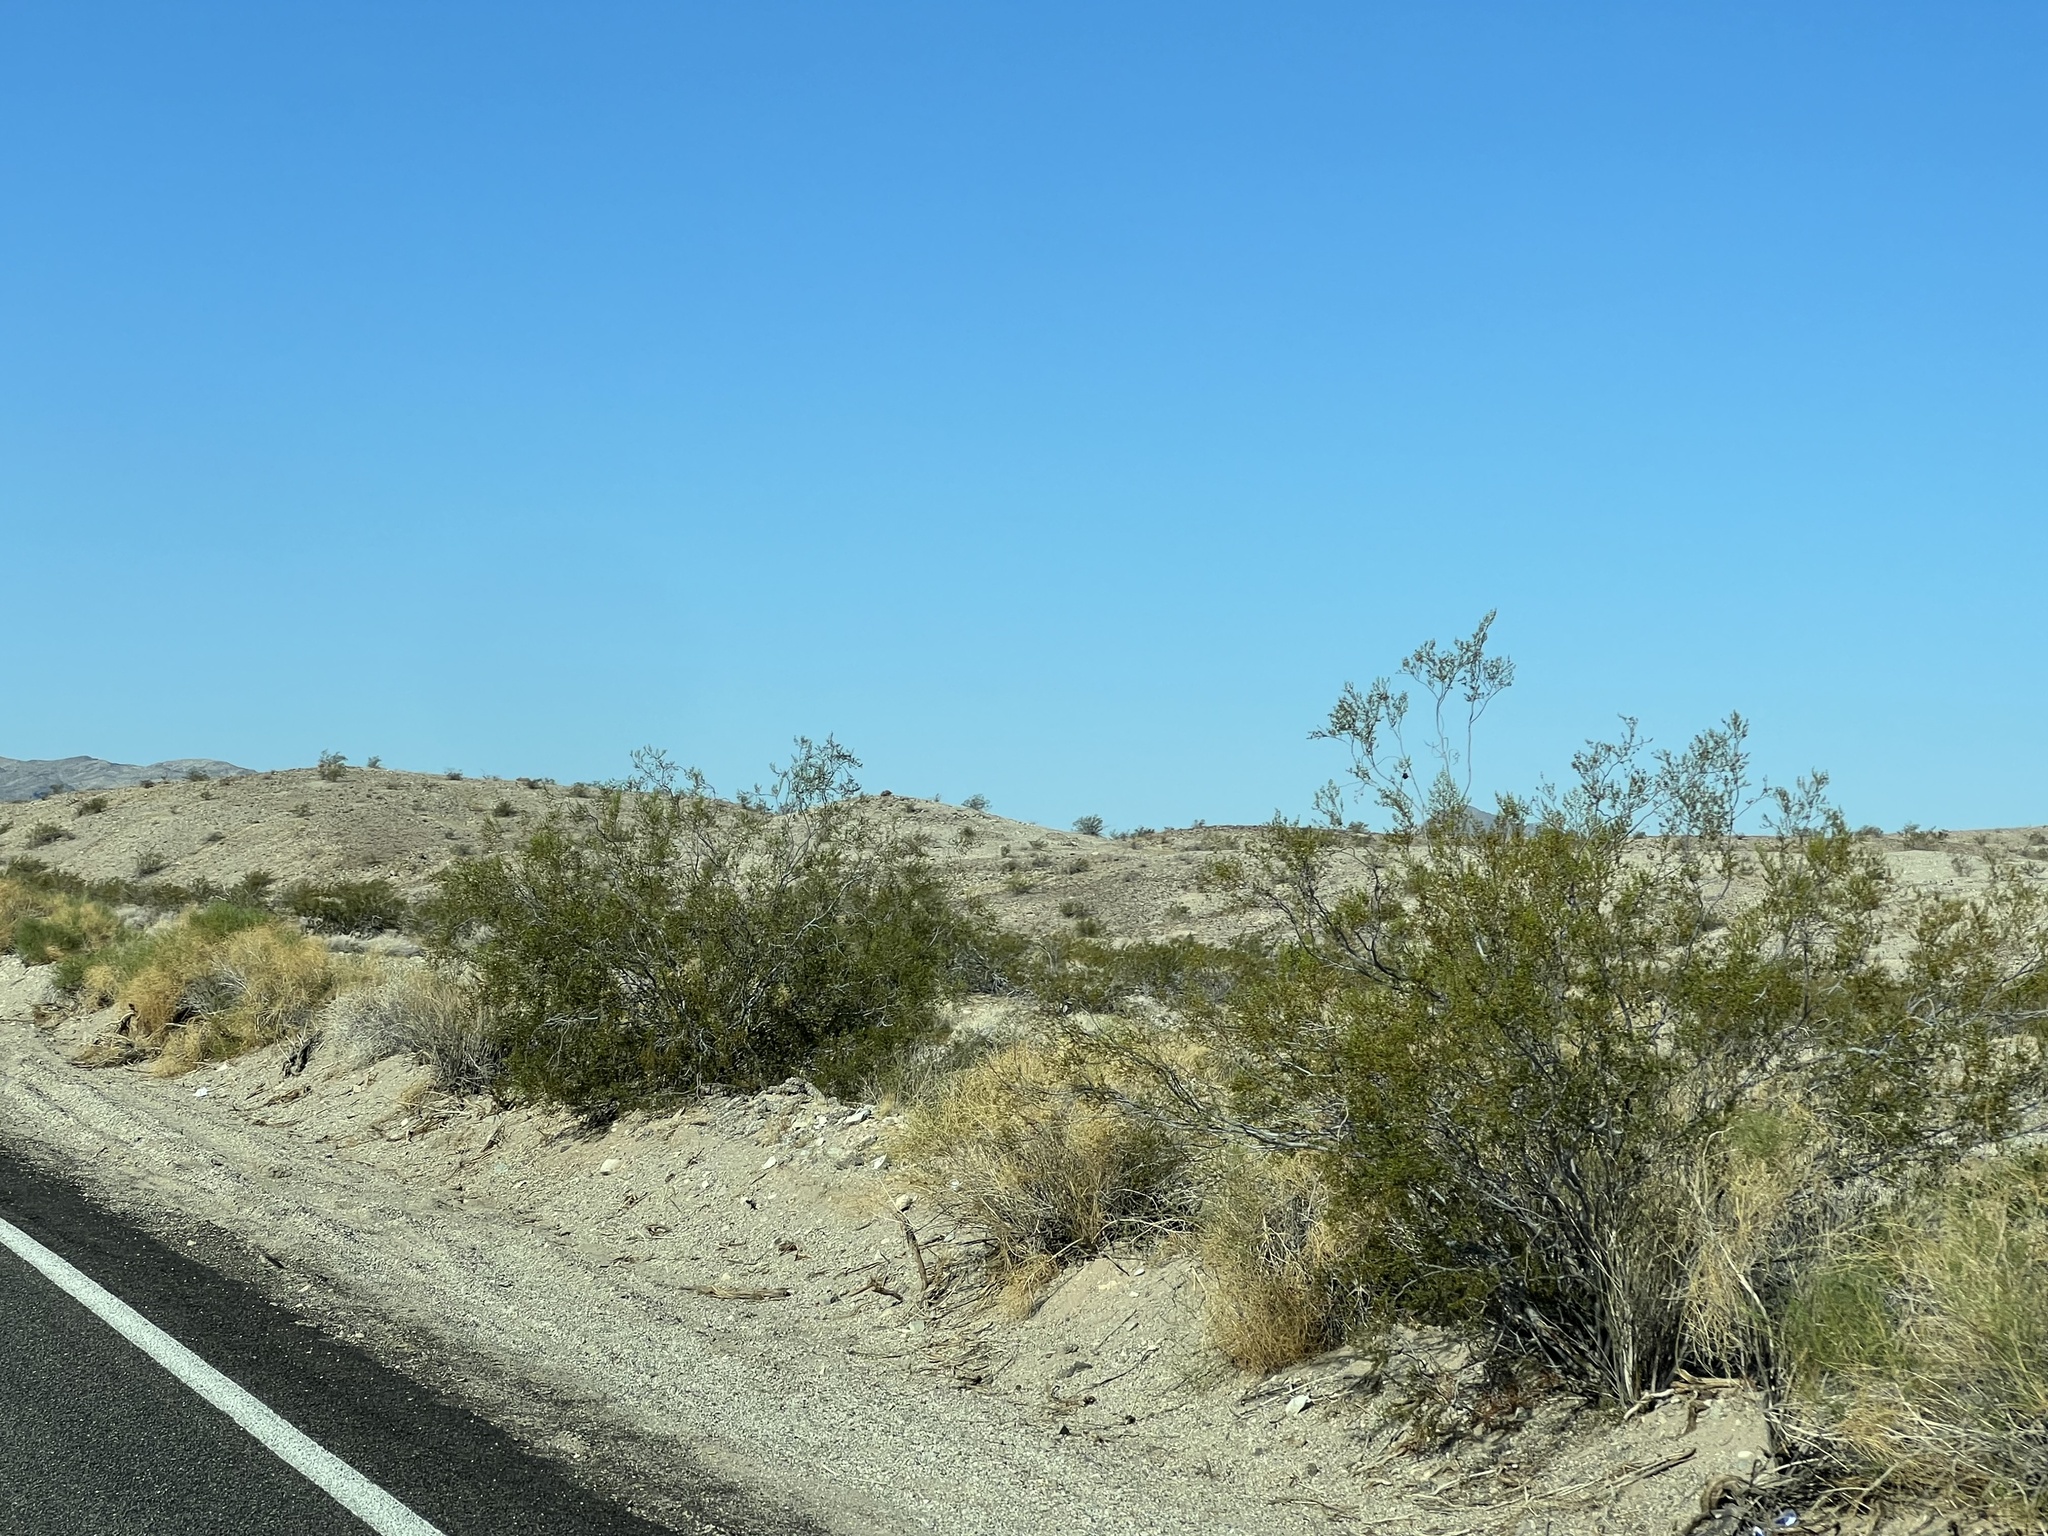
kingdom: Plantae
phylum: Tracheophyta
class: Magnoliopsida
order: Zygophyllales
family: Zygophyllaceae
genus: Larrea
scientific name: Larrea tridentata
